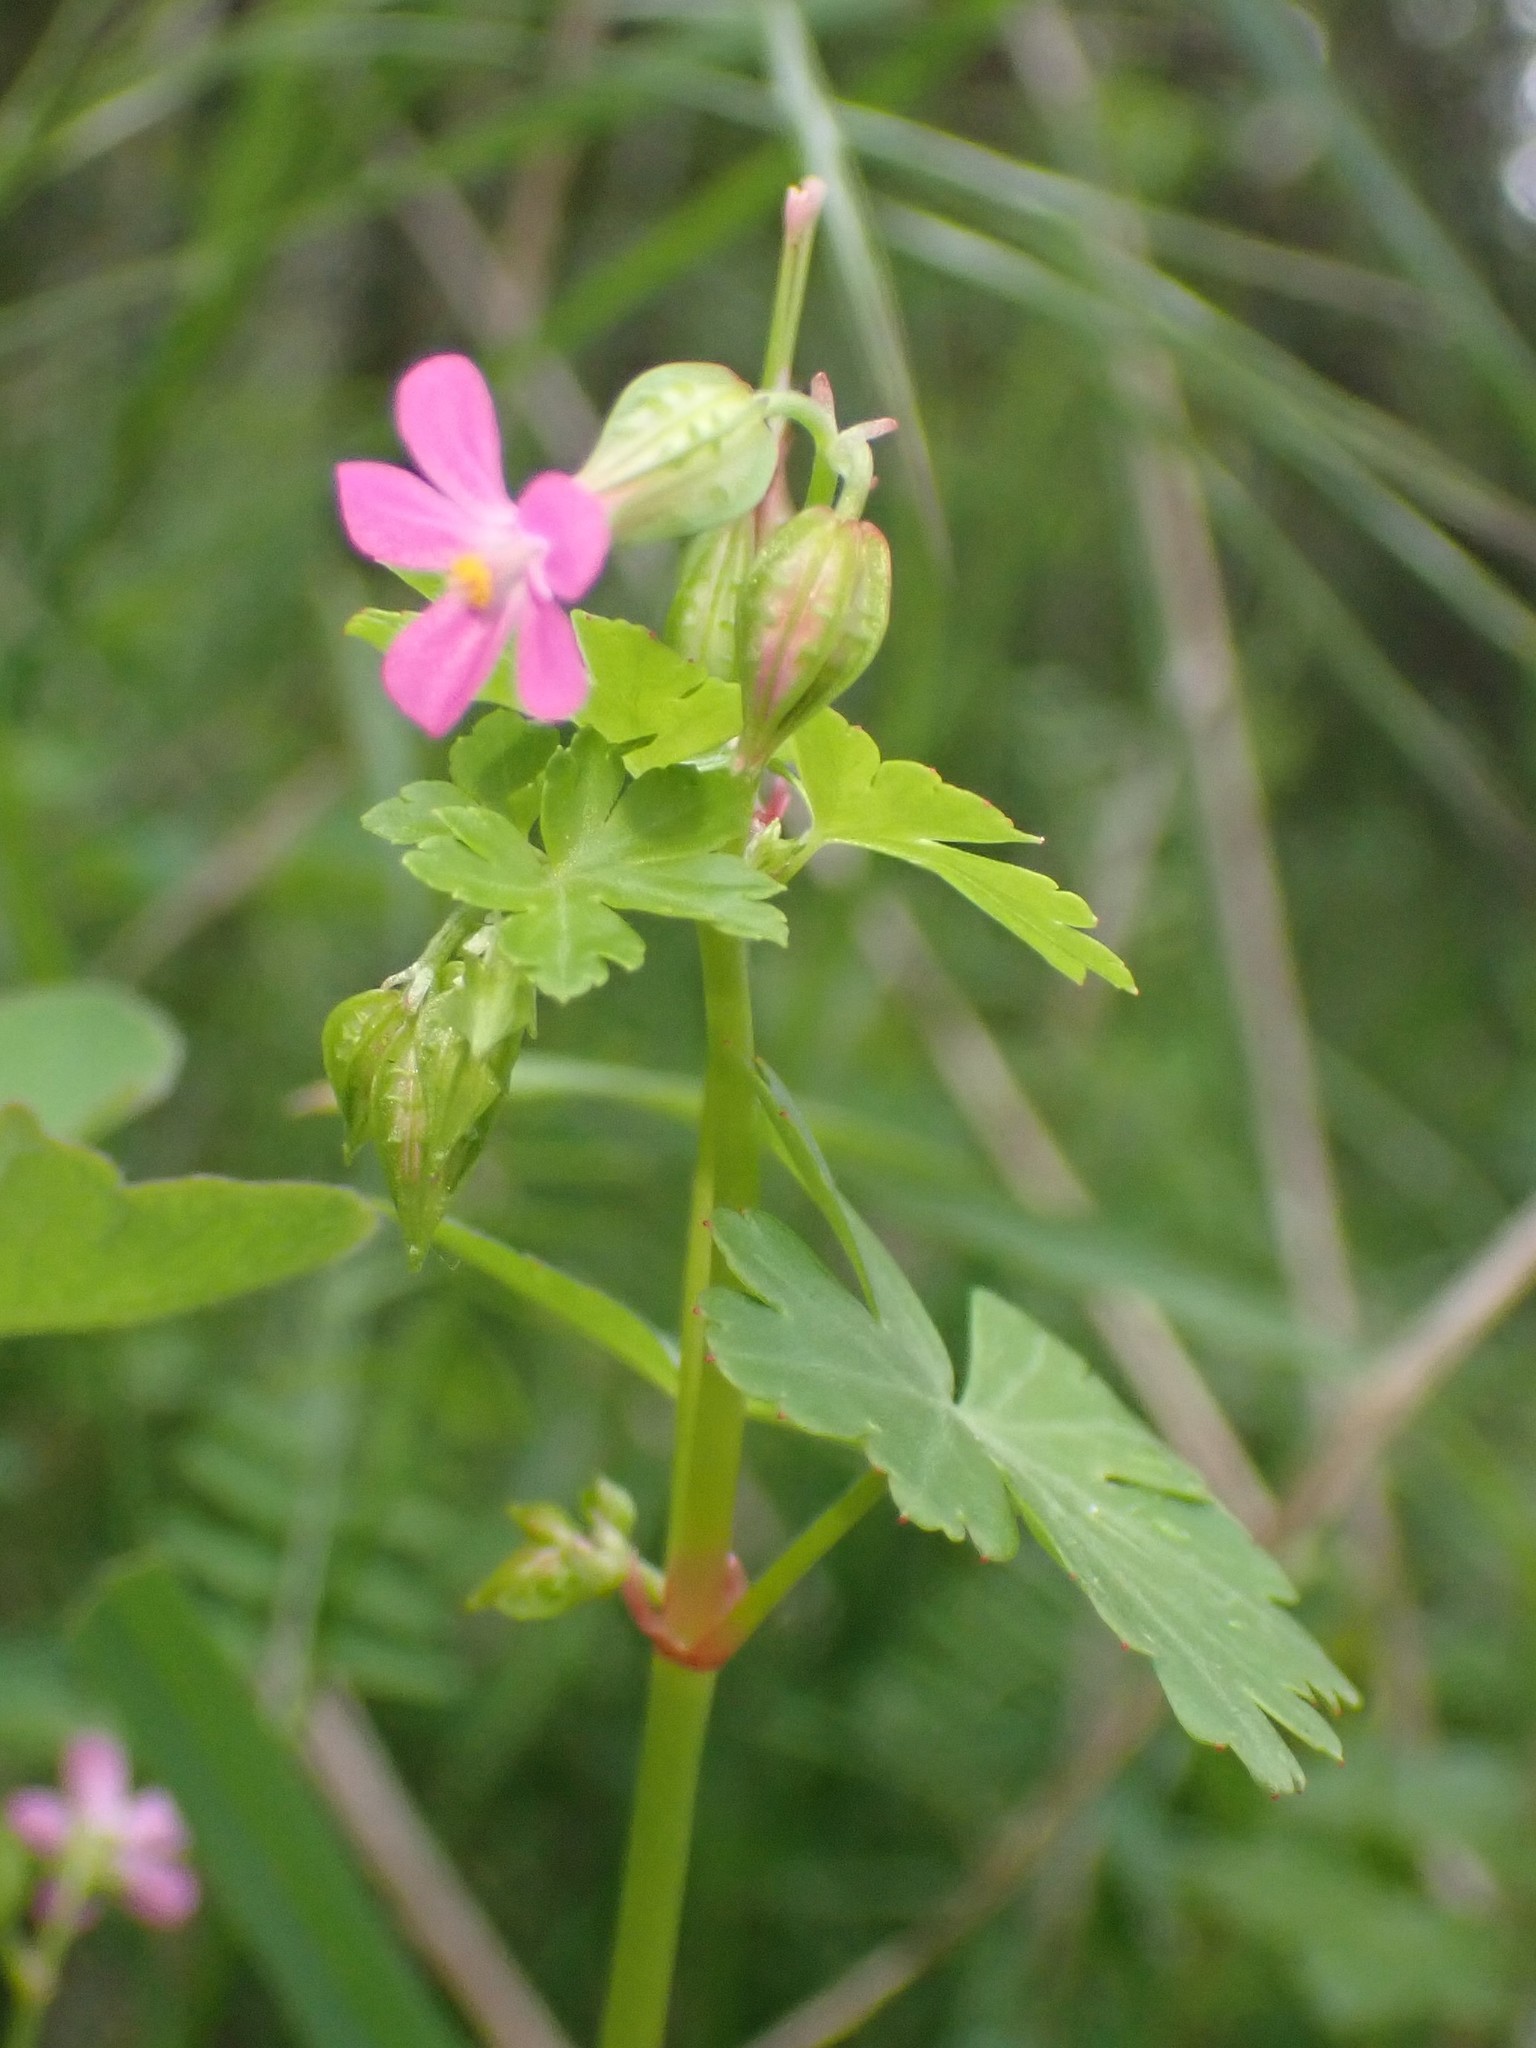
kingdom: Plantae
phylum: Tracheophyta
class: Magnoliopsida
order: Geraniales
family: Geraniaceae
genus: Geranium
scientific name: Geranium lucidum
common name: Shining crane's-bill
